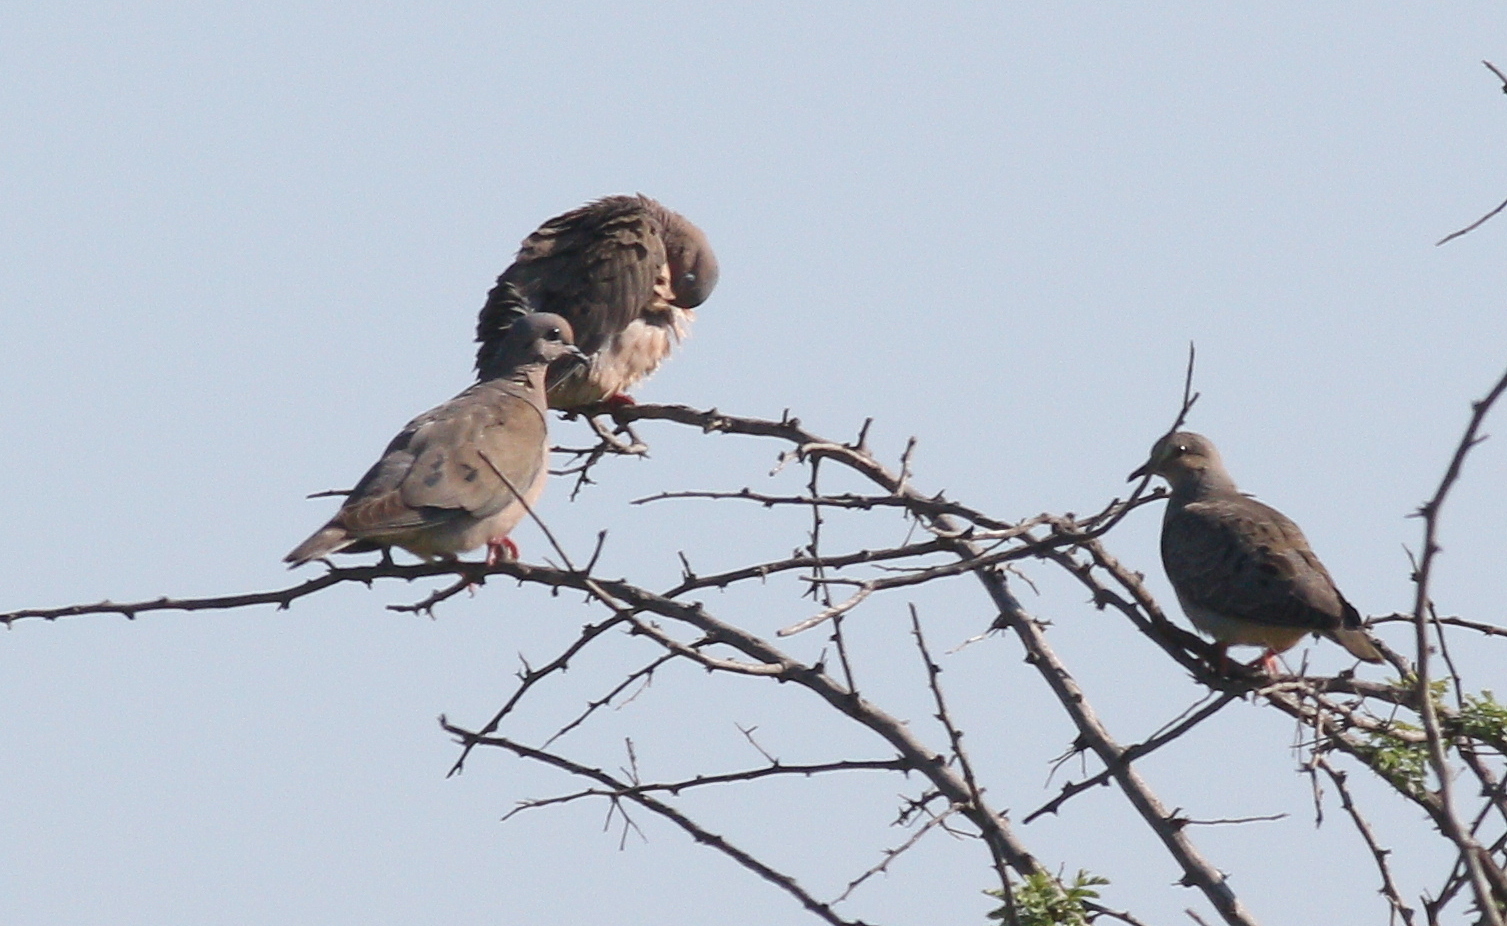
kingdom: Animalia
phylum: Chordata
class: Aves
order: Columbiformes
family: Columbidae
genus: Zenaida
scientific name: Zenaida auriculata
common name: Eared dove
